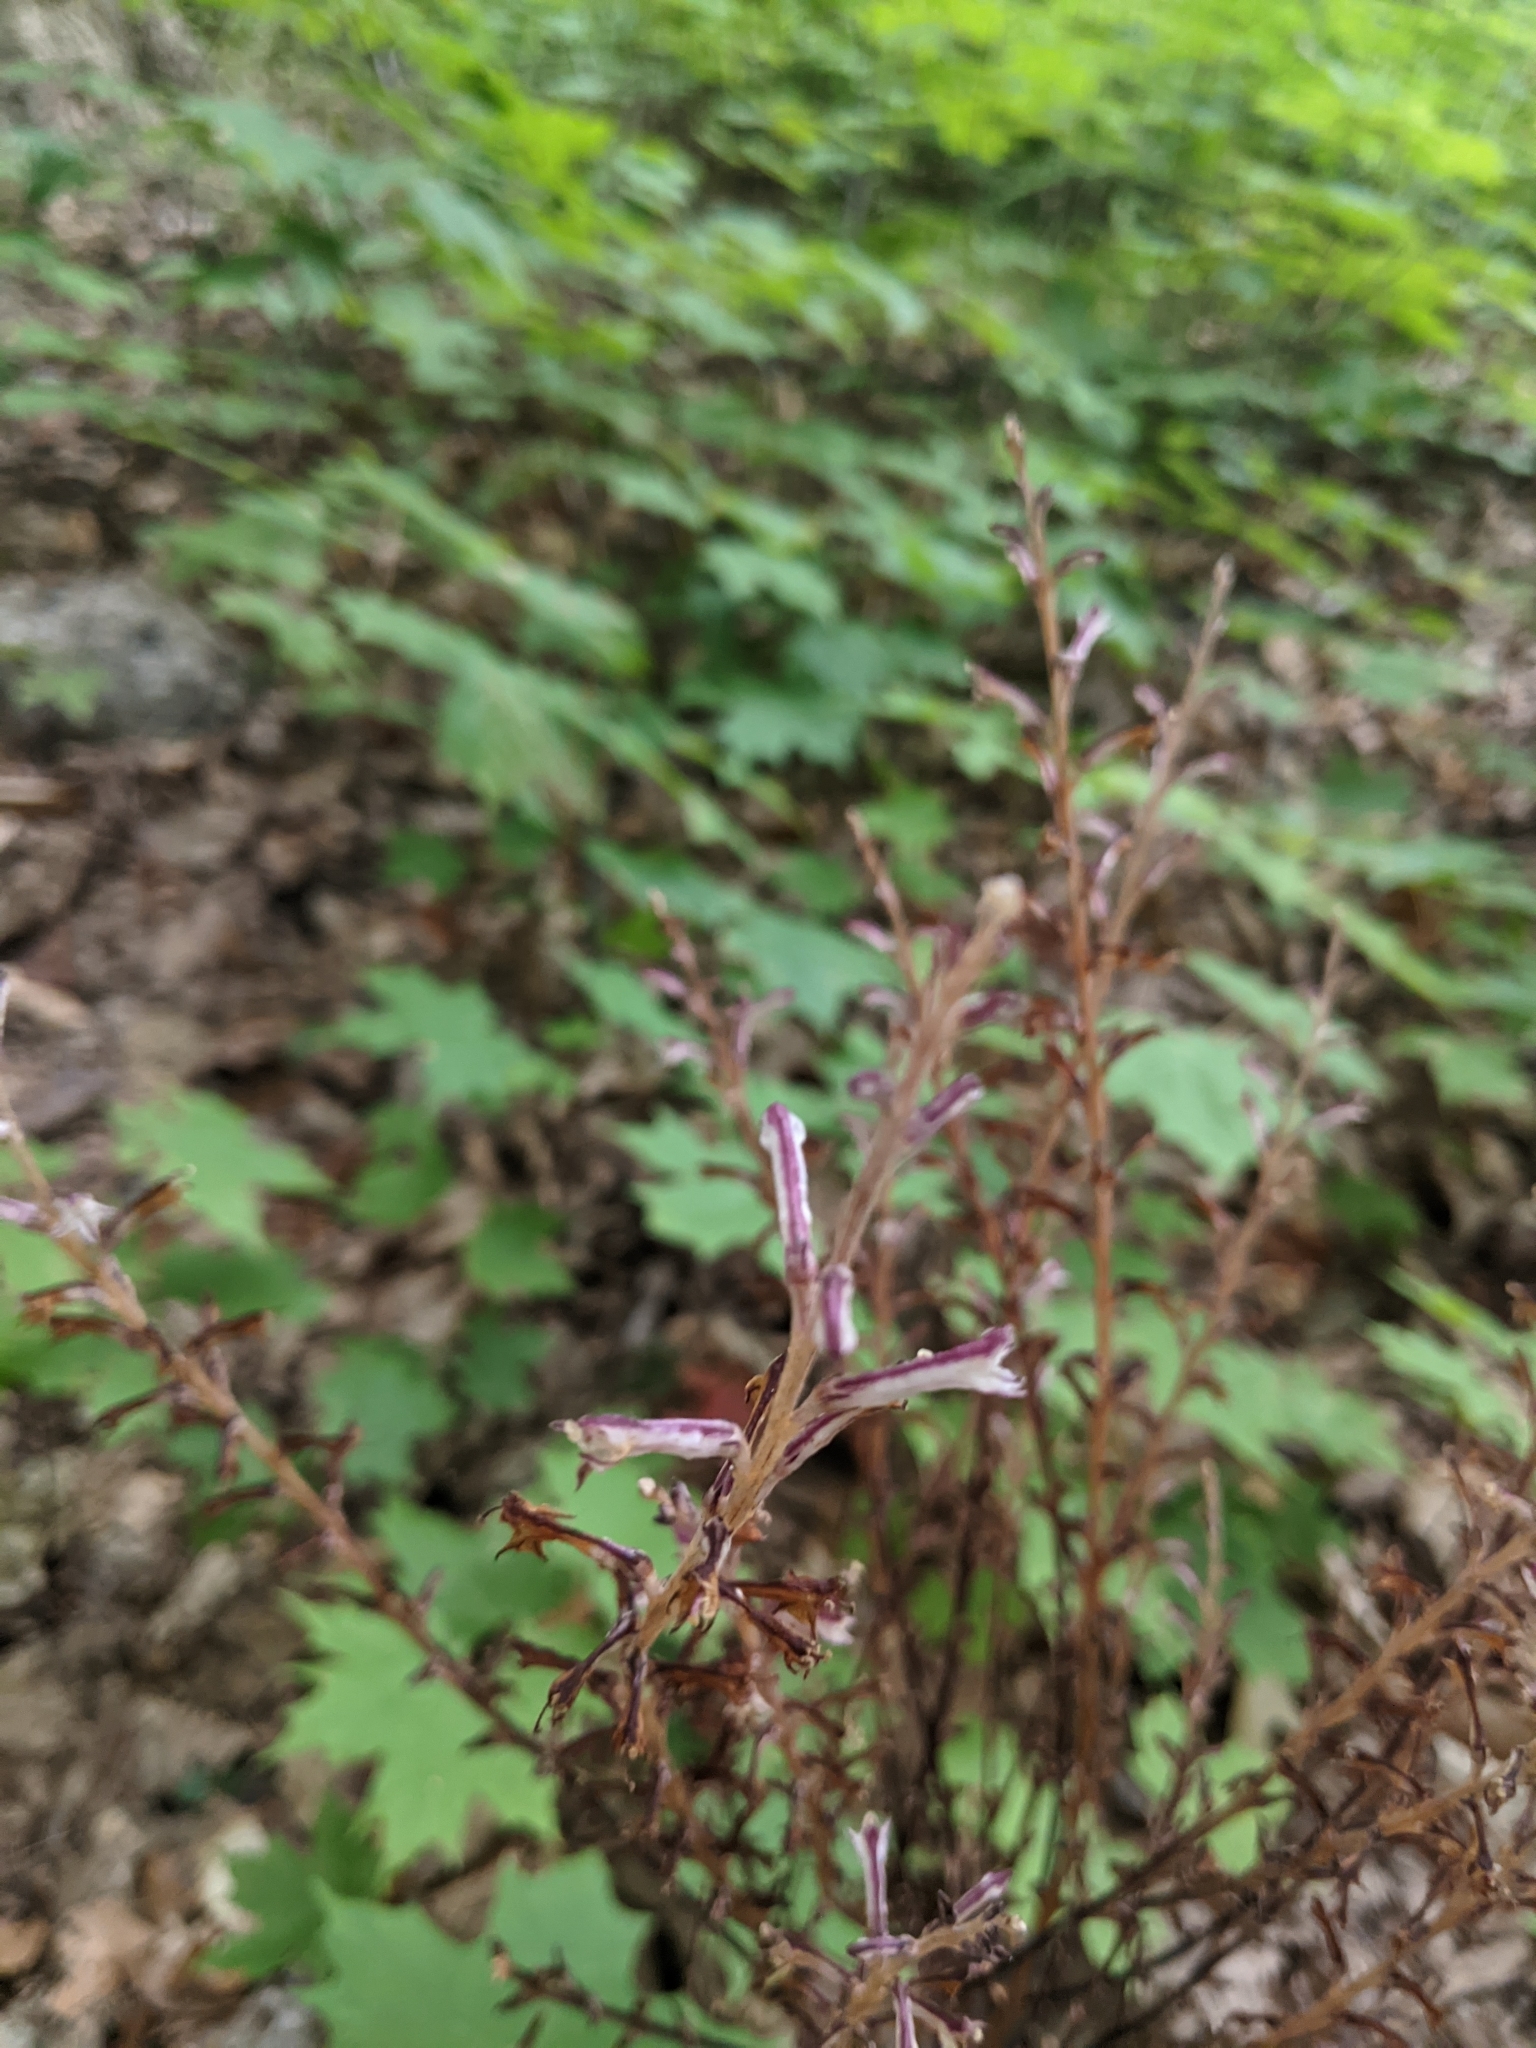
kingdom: Plantae
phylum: Tracheophyta
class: Magnoliopsida
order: Lamiales
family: Orobanchaceae
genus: Epifagus
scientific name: Epifagus virginiana
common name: Beechdrops
